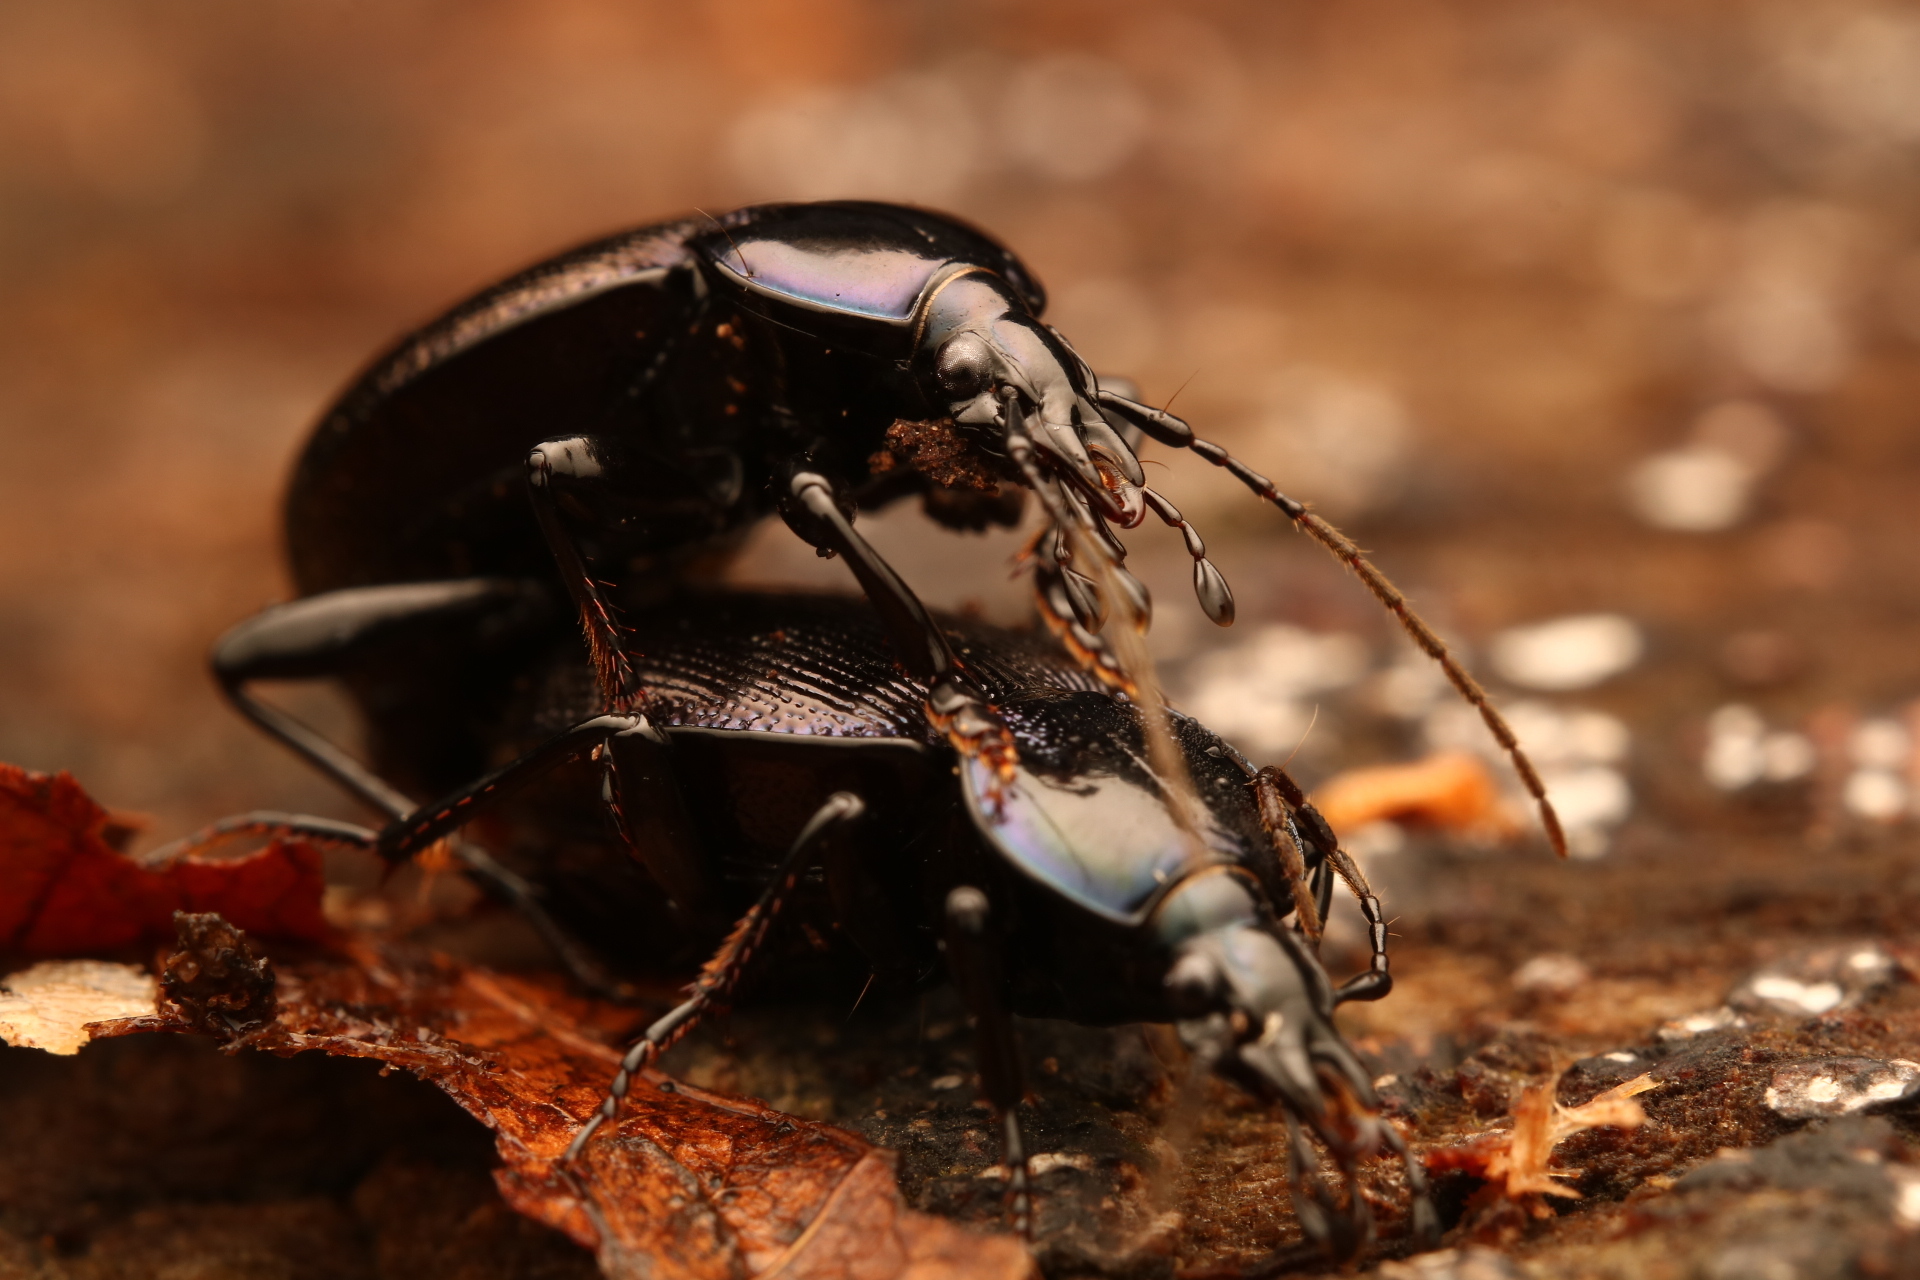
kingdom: Animalia
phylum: Arthropoda
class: Insecta
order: Coleoptera
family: Carabidae
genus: Sphaeroderus
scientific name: Sphaeroderus stenostomus
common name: Small snail-eating ground beetle
